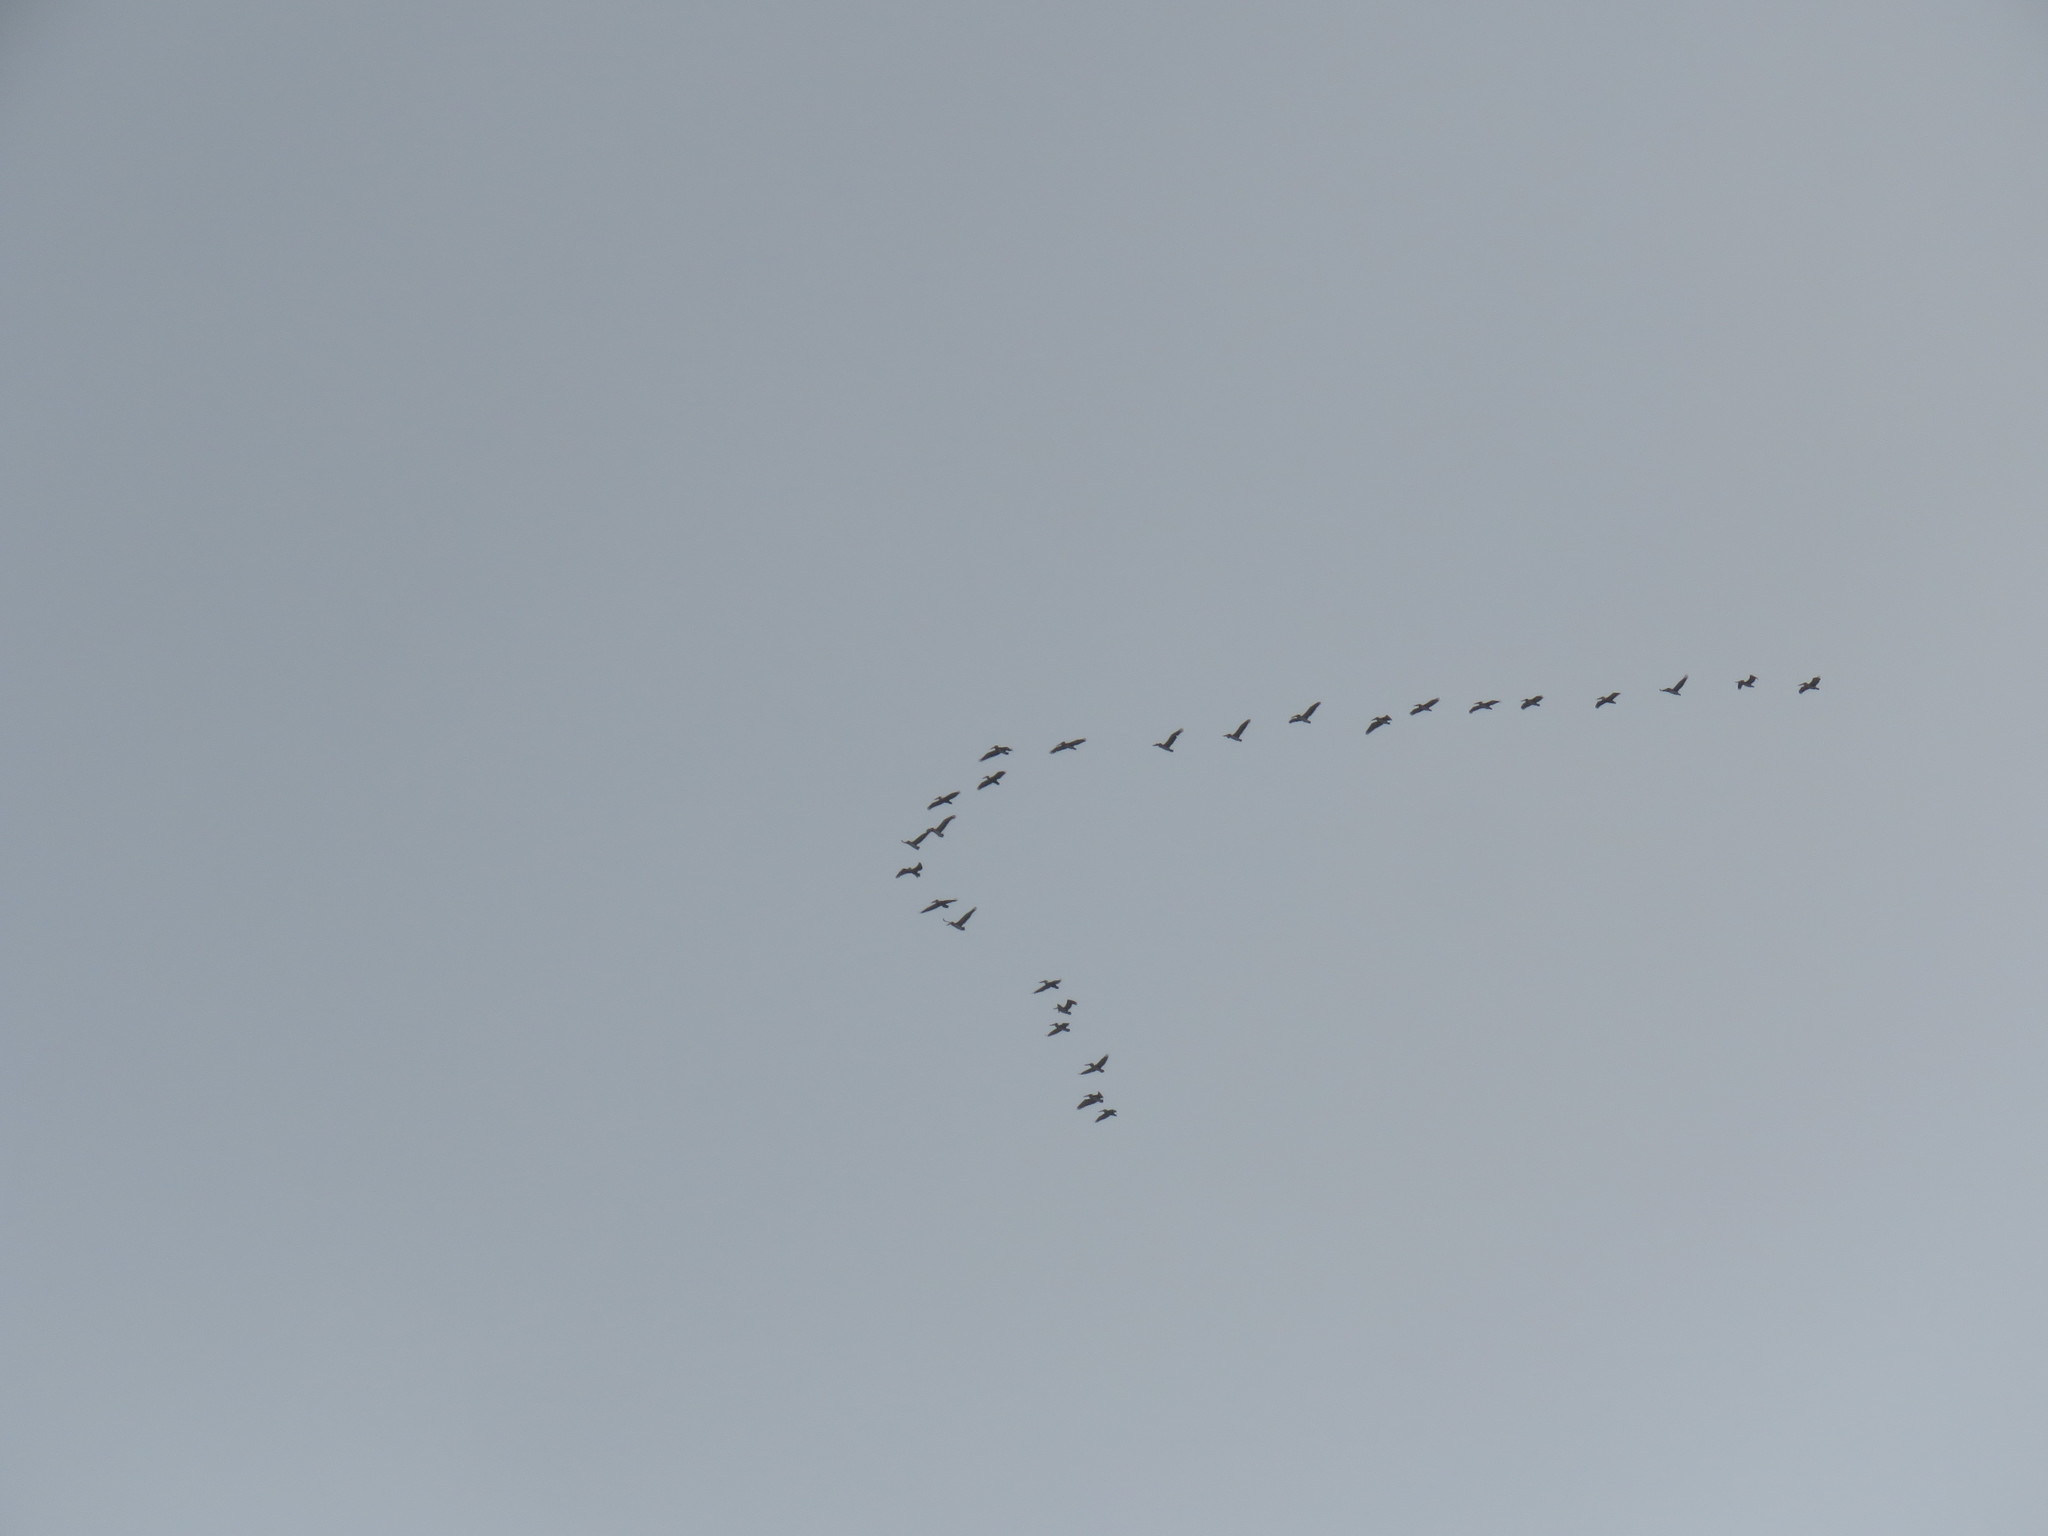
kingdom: Animalia
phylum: Chordata
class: Aves
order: Pelecaniformes
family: Pelecanidae
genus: Pelecanus
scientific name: Pelecanus occidentalis
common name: Brown pelican
